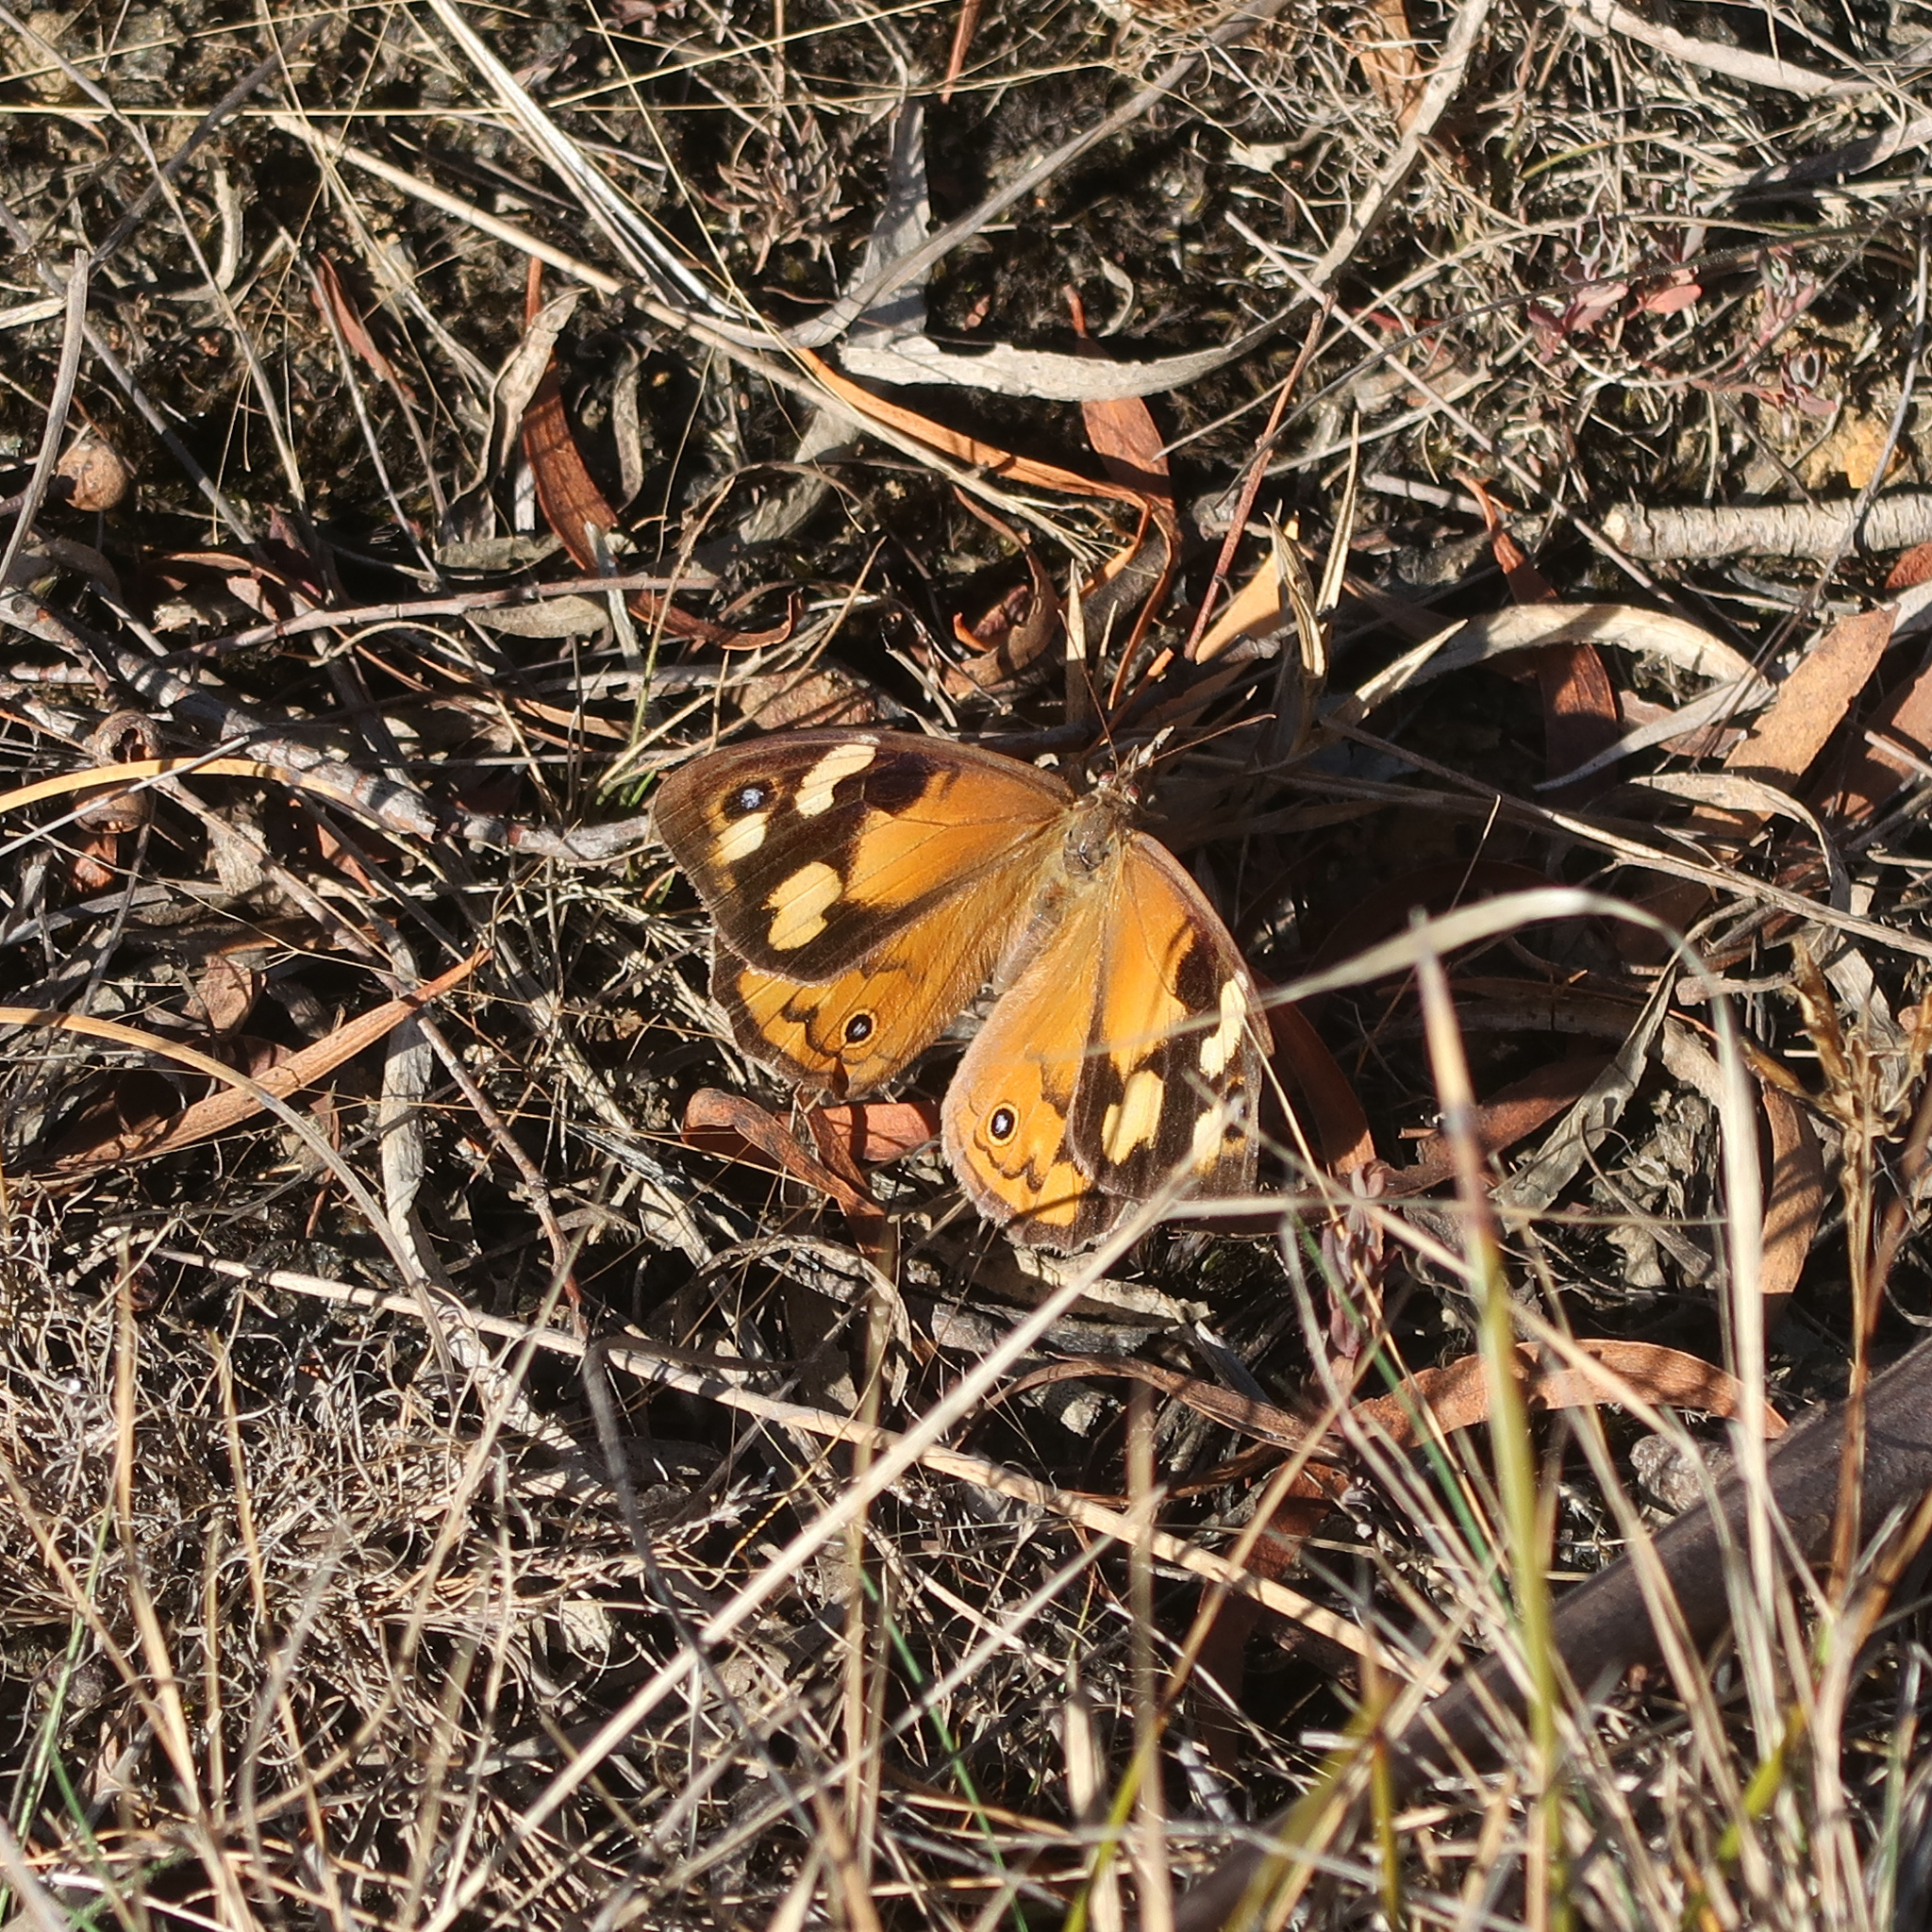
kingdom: Animalia
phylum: Arthropoda
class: Insecta
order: Lepidoptera
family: Nymphalidae
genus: Heteronympha
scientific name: Heteronympha merope
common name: Common brown
